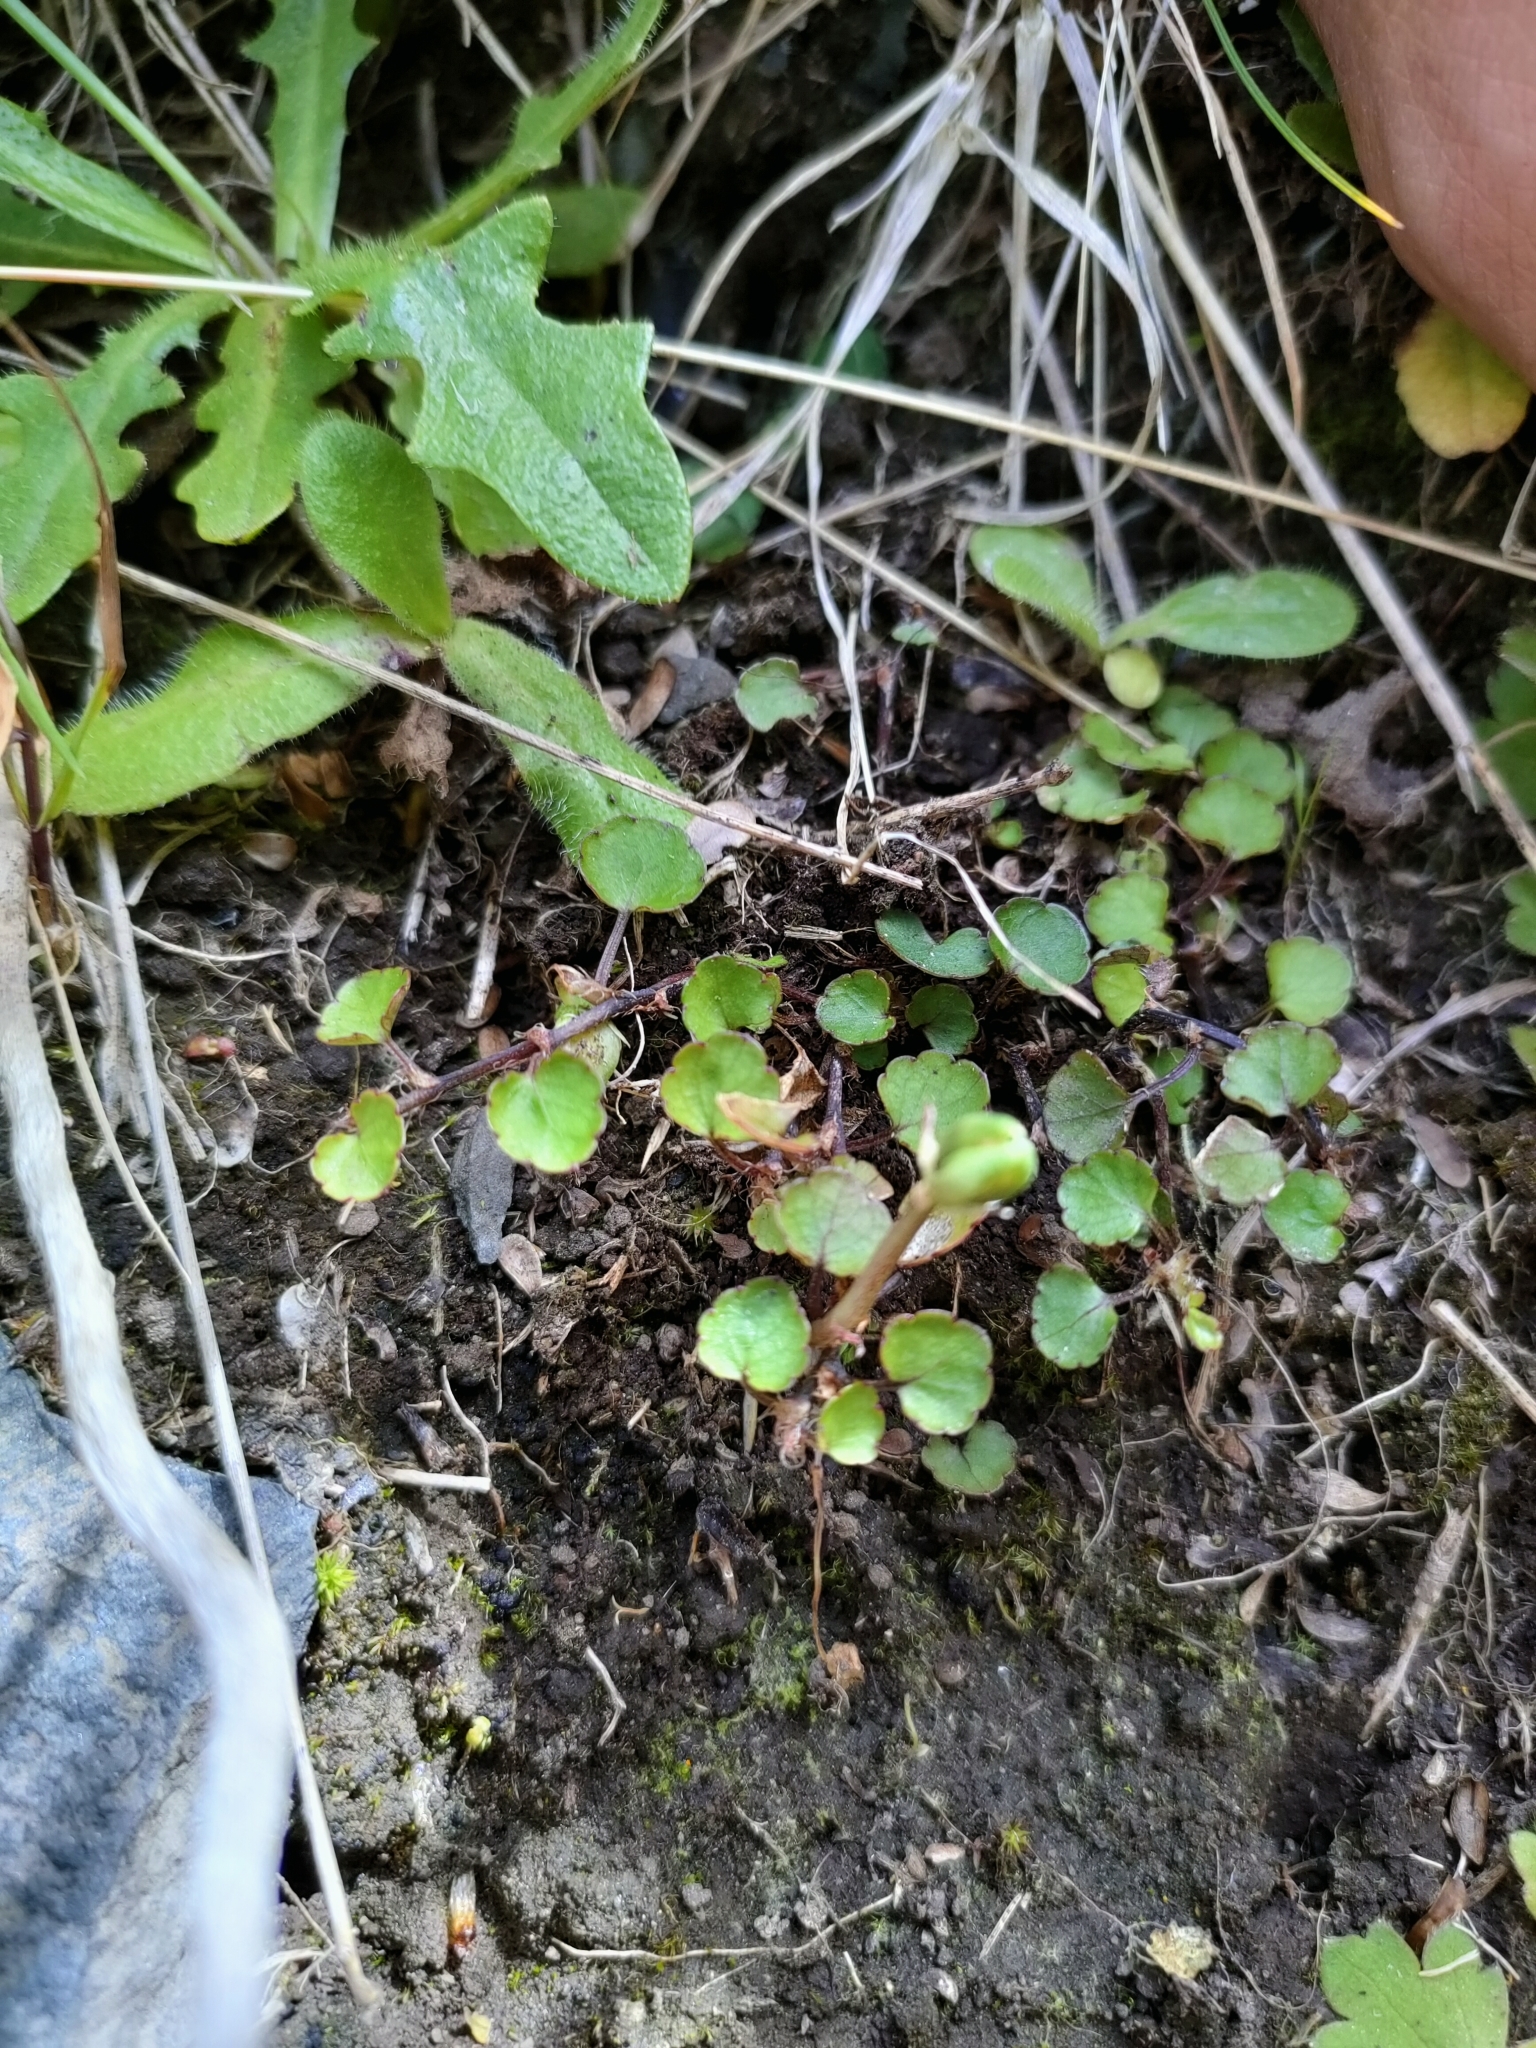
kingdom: Plantae
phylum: Tracheophyta
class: Magnoliopsida
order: Malpighiales
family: Violaceae
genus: Viola
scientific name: Viola filicaulis
